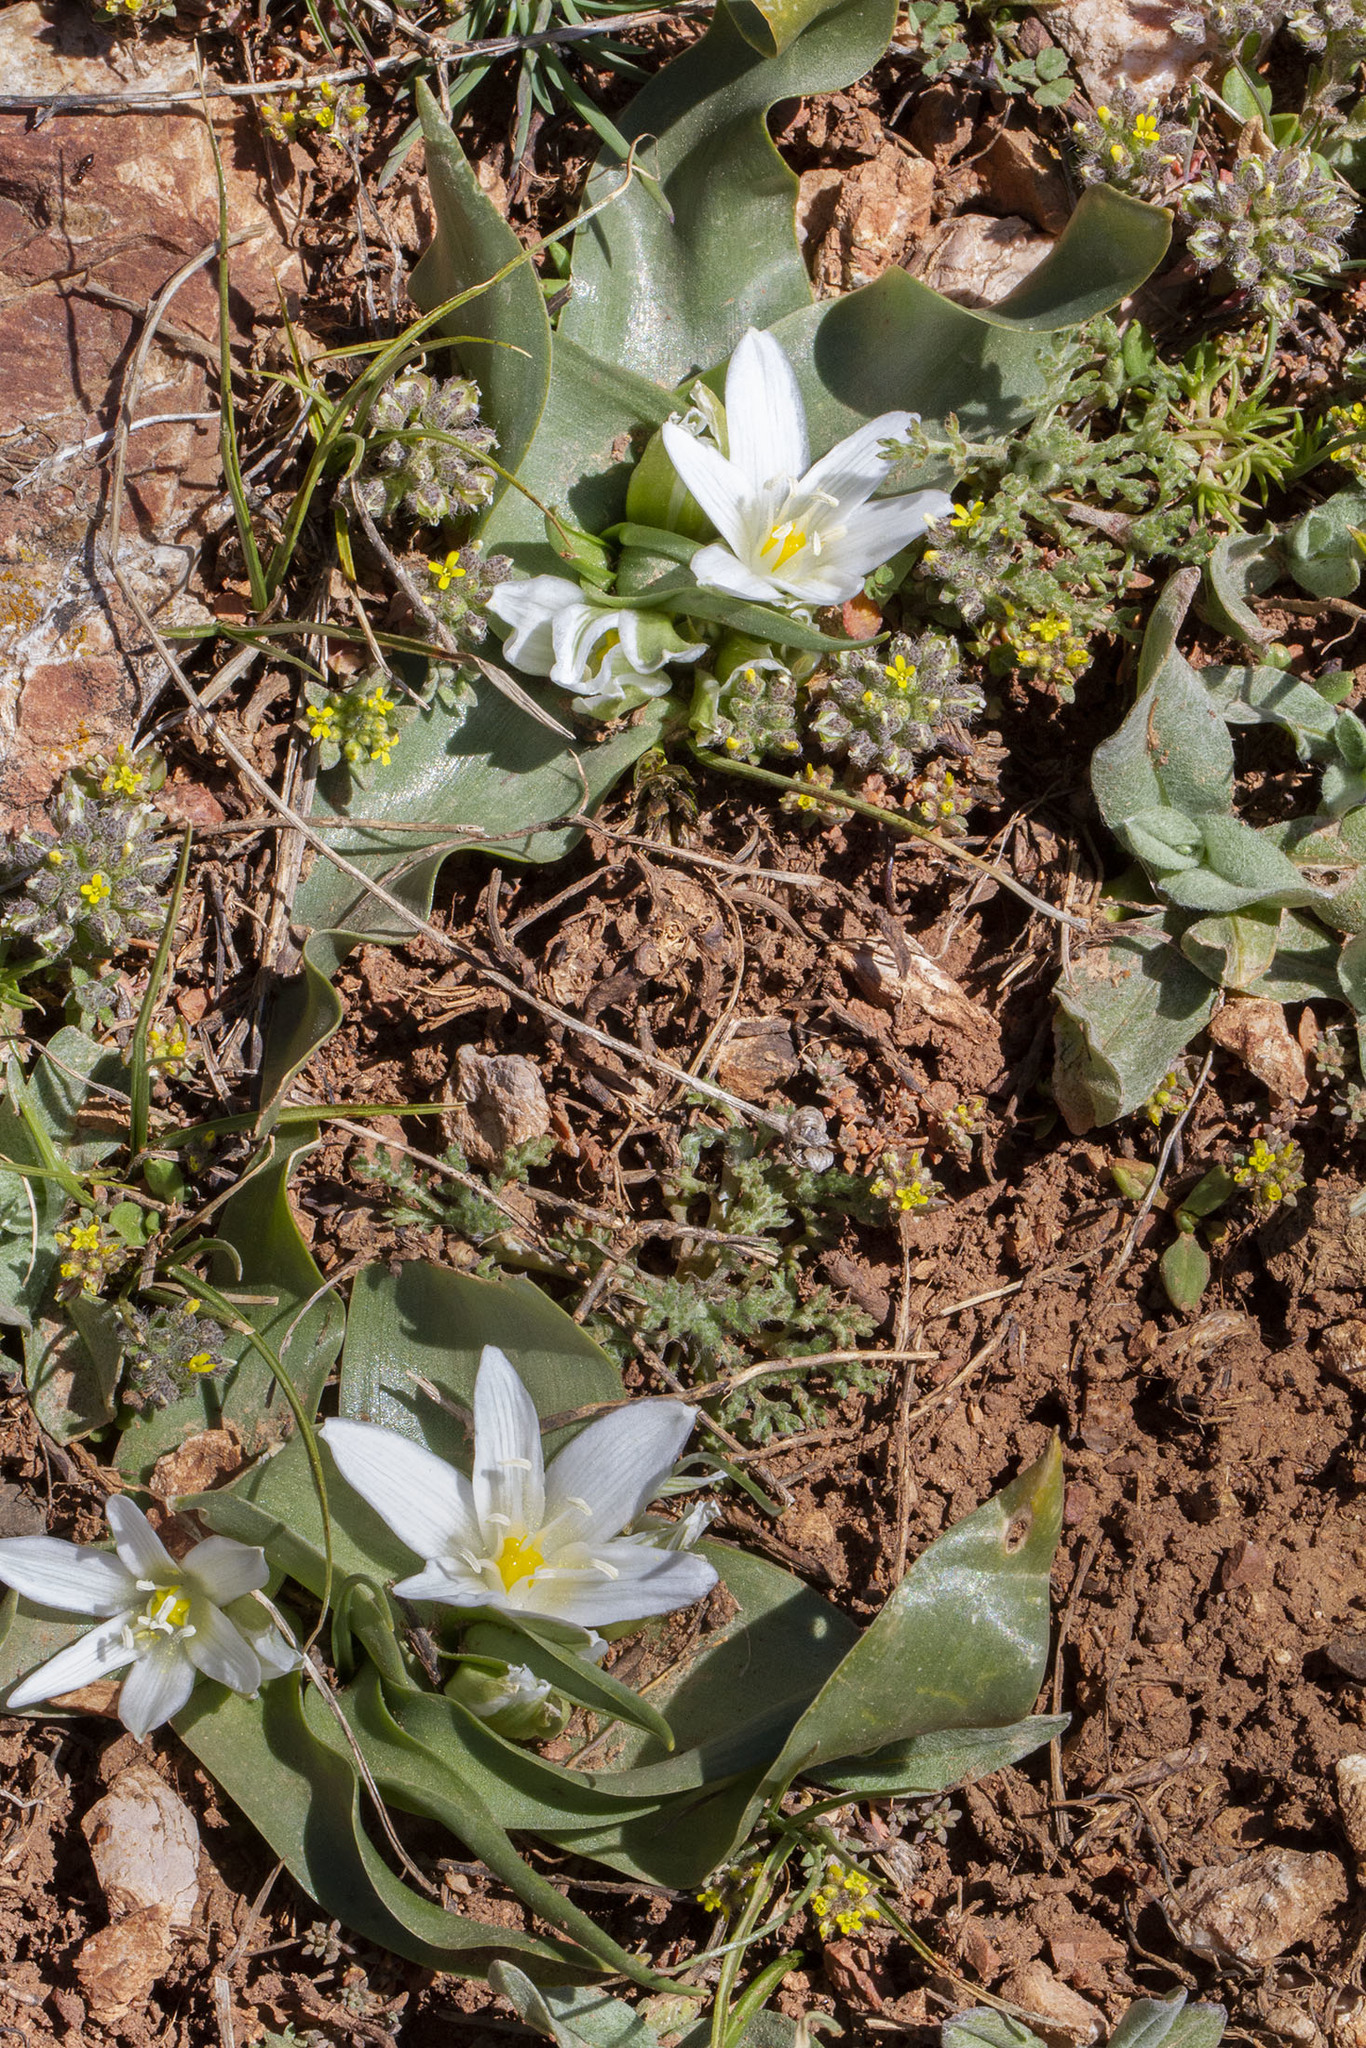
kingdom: Plantae
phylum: Tracheophyta
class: Liliopsida
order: Asparagales
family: Asparagaceae
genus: Ornithogalum
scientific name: Ornithogalum lanceolatum
